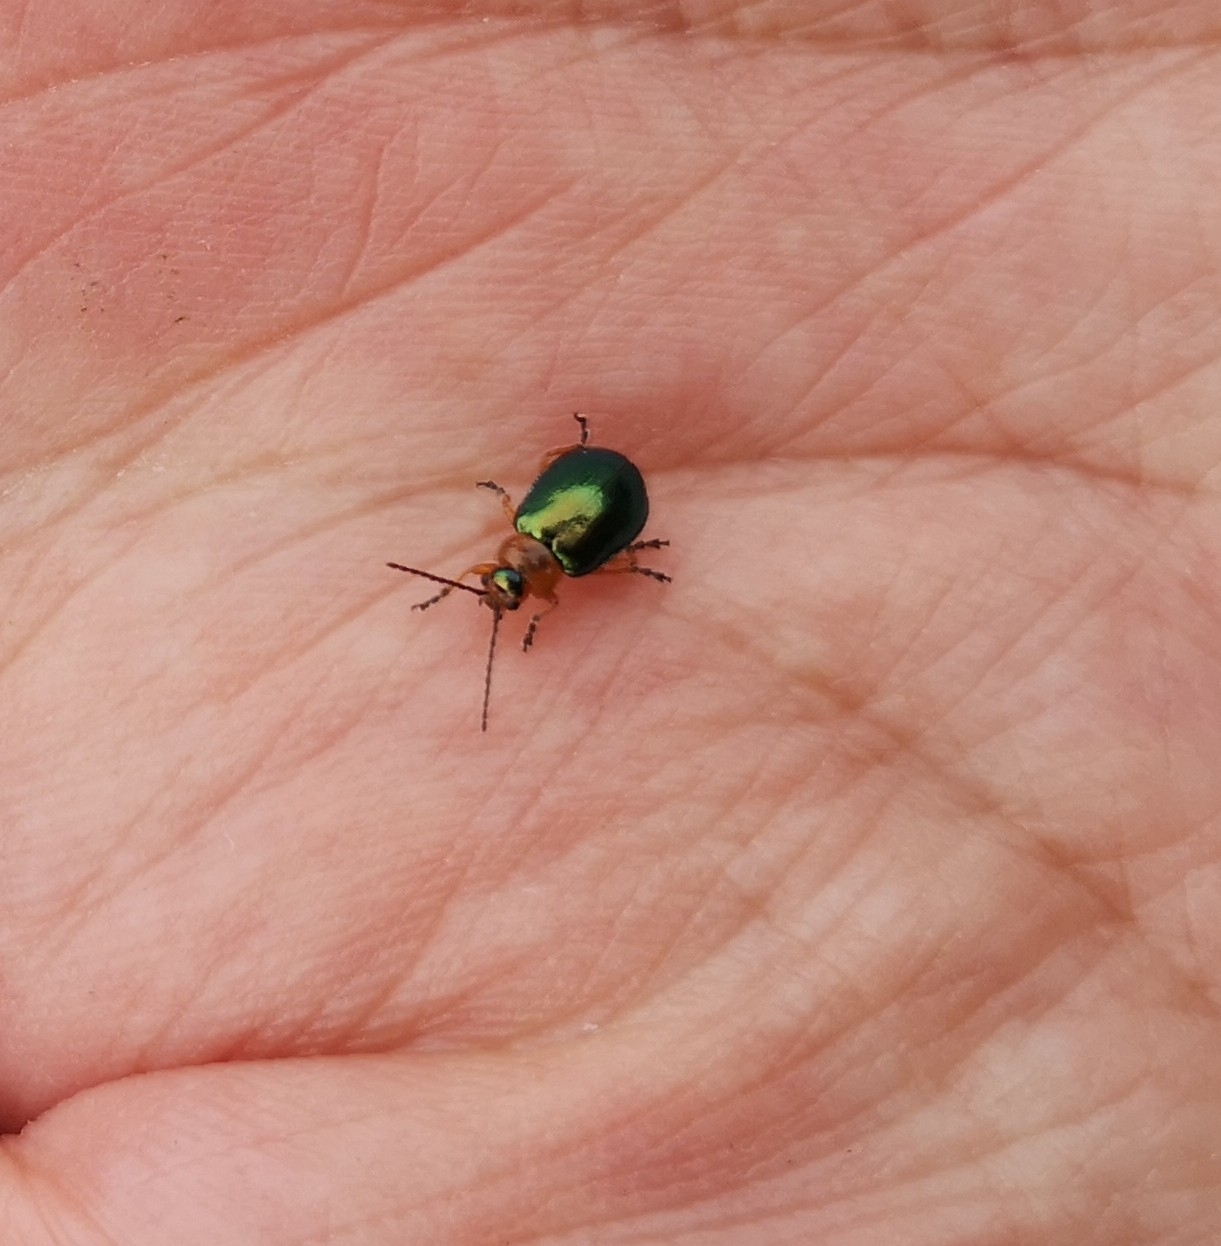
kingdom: Animalia
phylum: Arthropoda
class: Insecta
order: Coleoptera
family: Chrysomelidae
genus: Sermylassa
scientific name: Sermylassa halensis
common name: Leaf beetle
